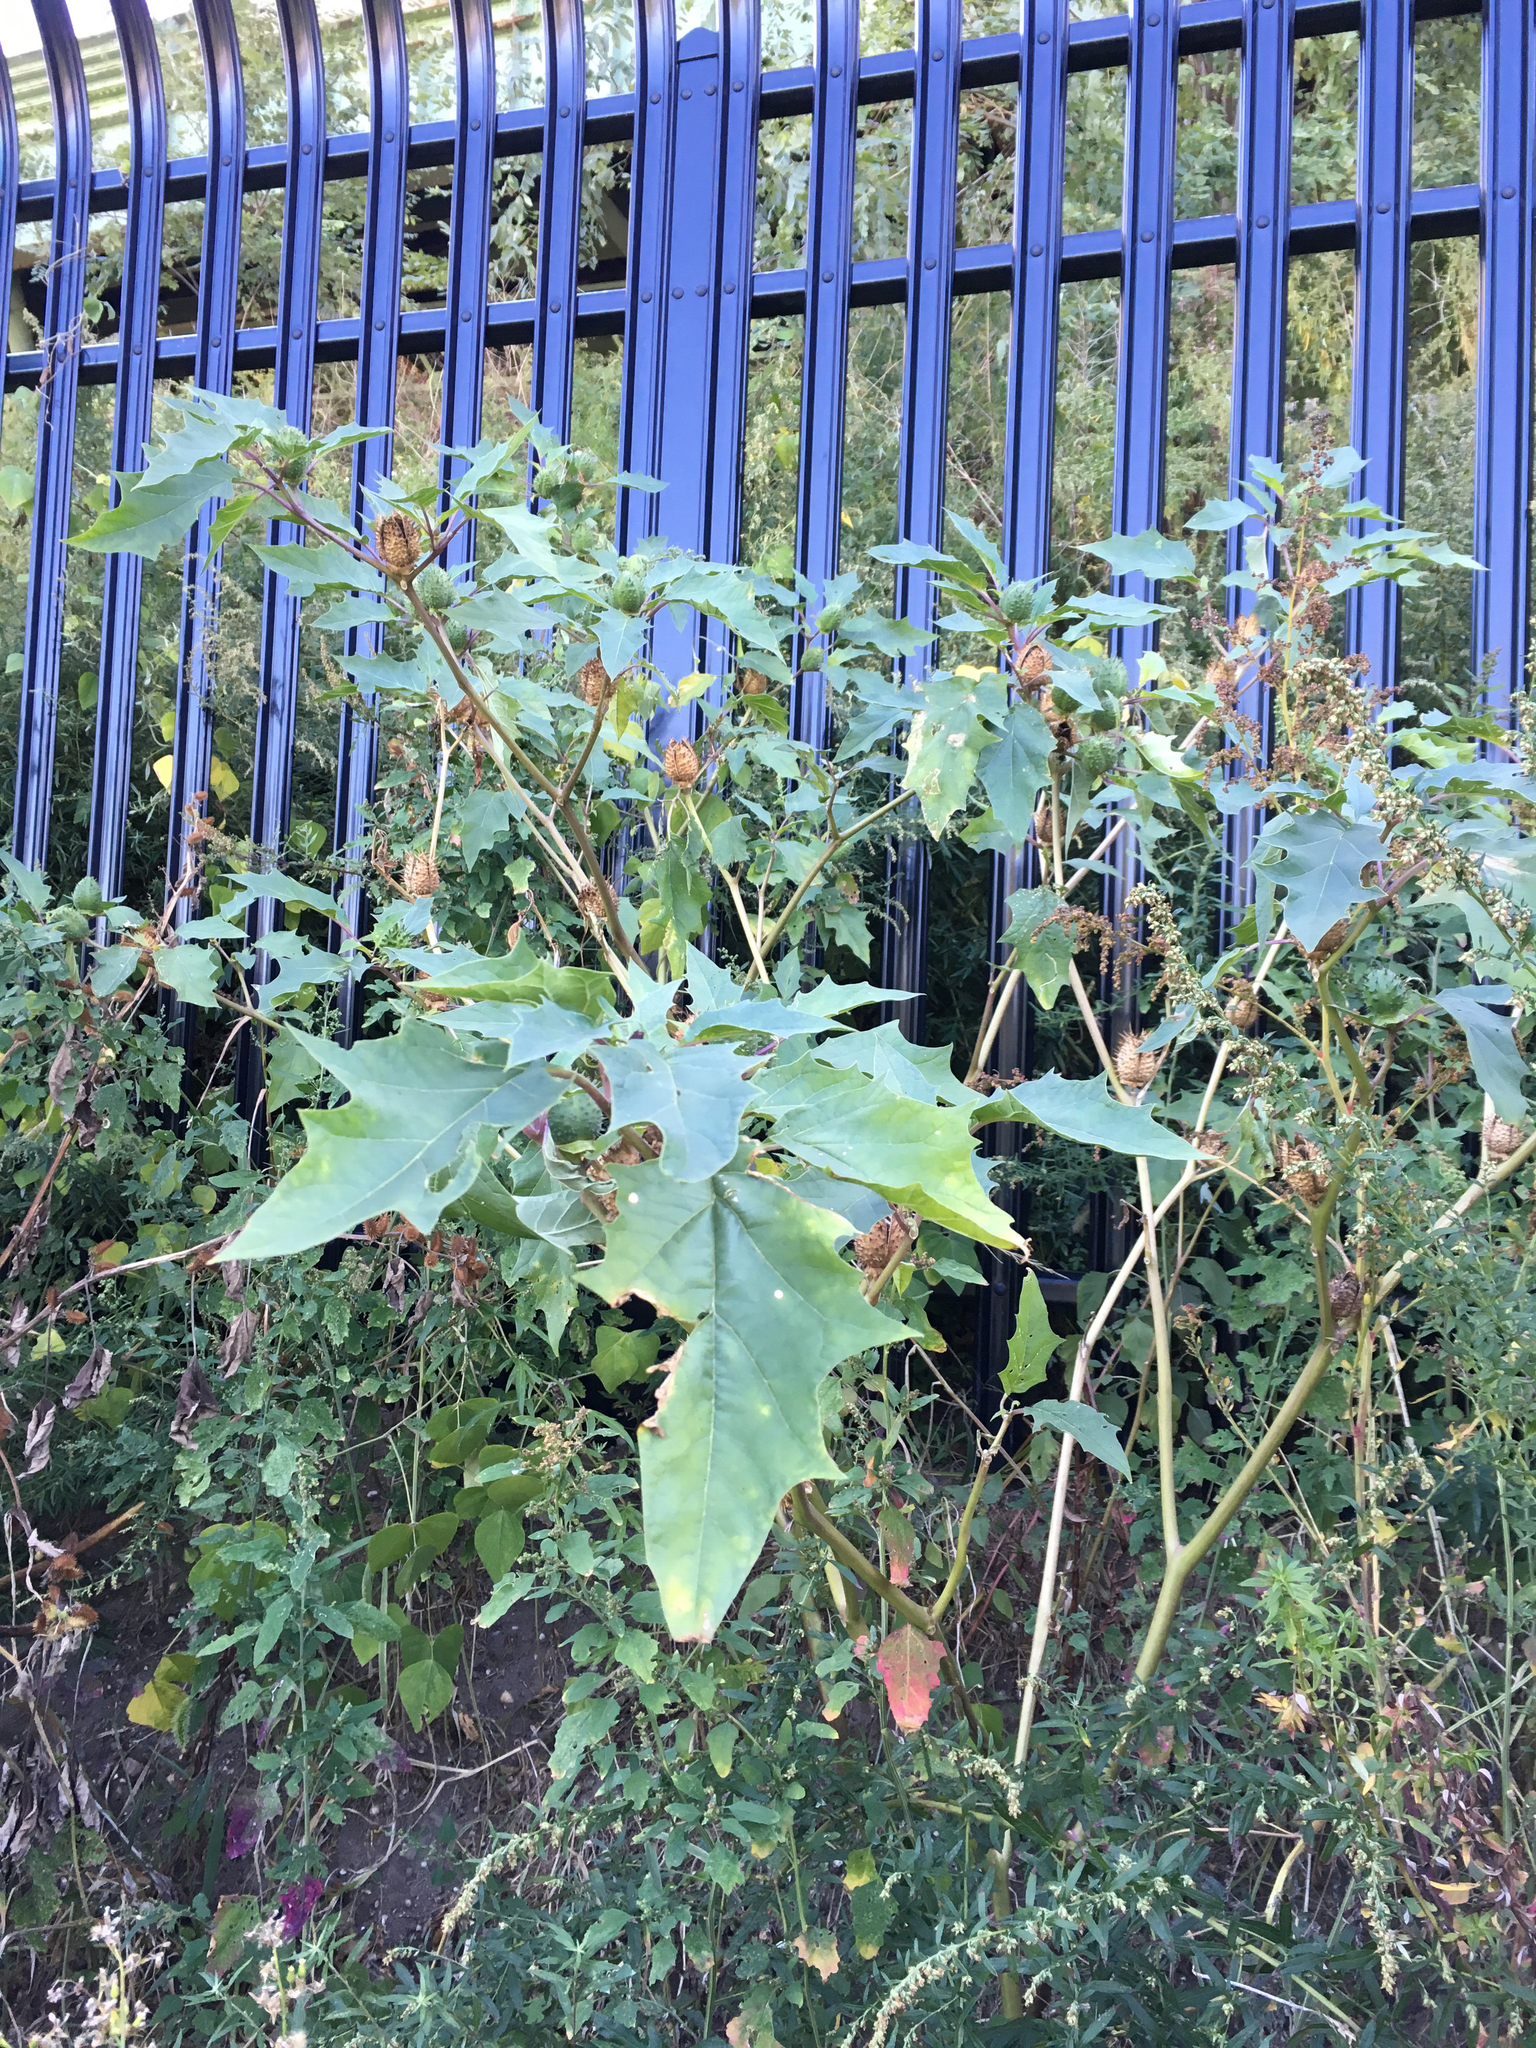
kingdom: Plantae
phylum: Tracheophyta
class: Magnoliopsida
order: Solanales
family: Solanaceae
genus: Datura
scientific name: Datura stramonium
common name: Thorn-apple
